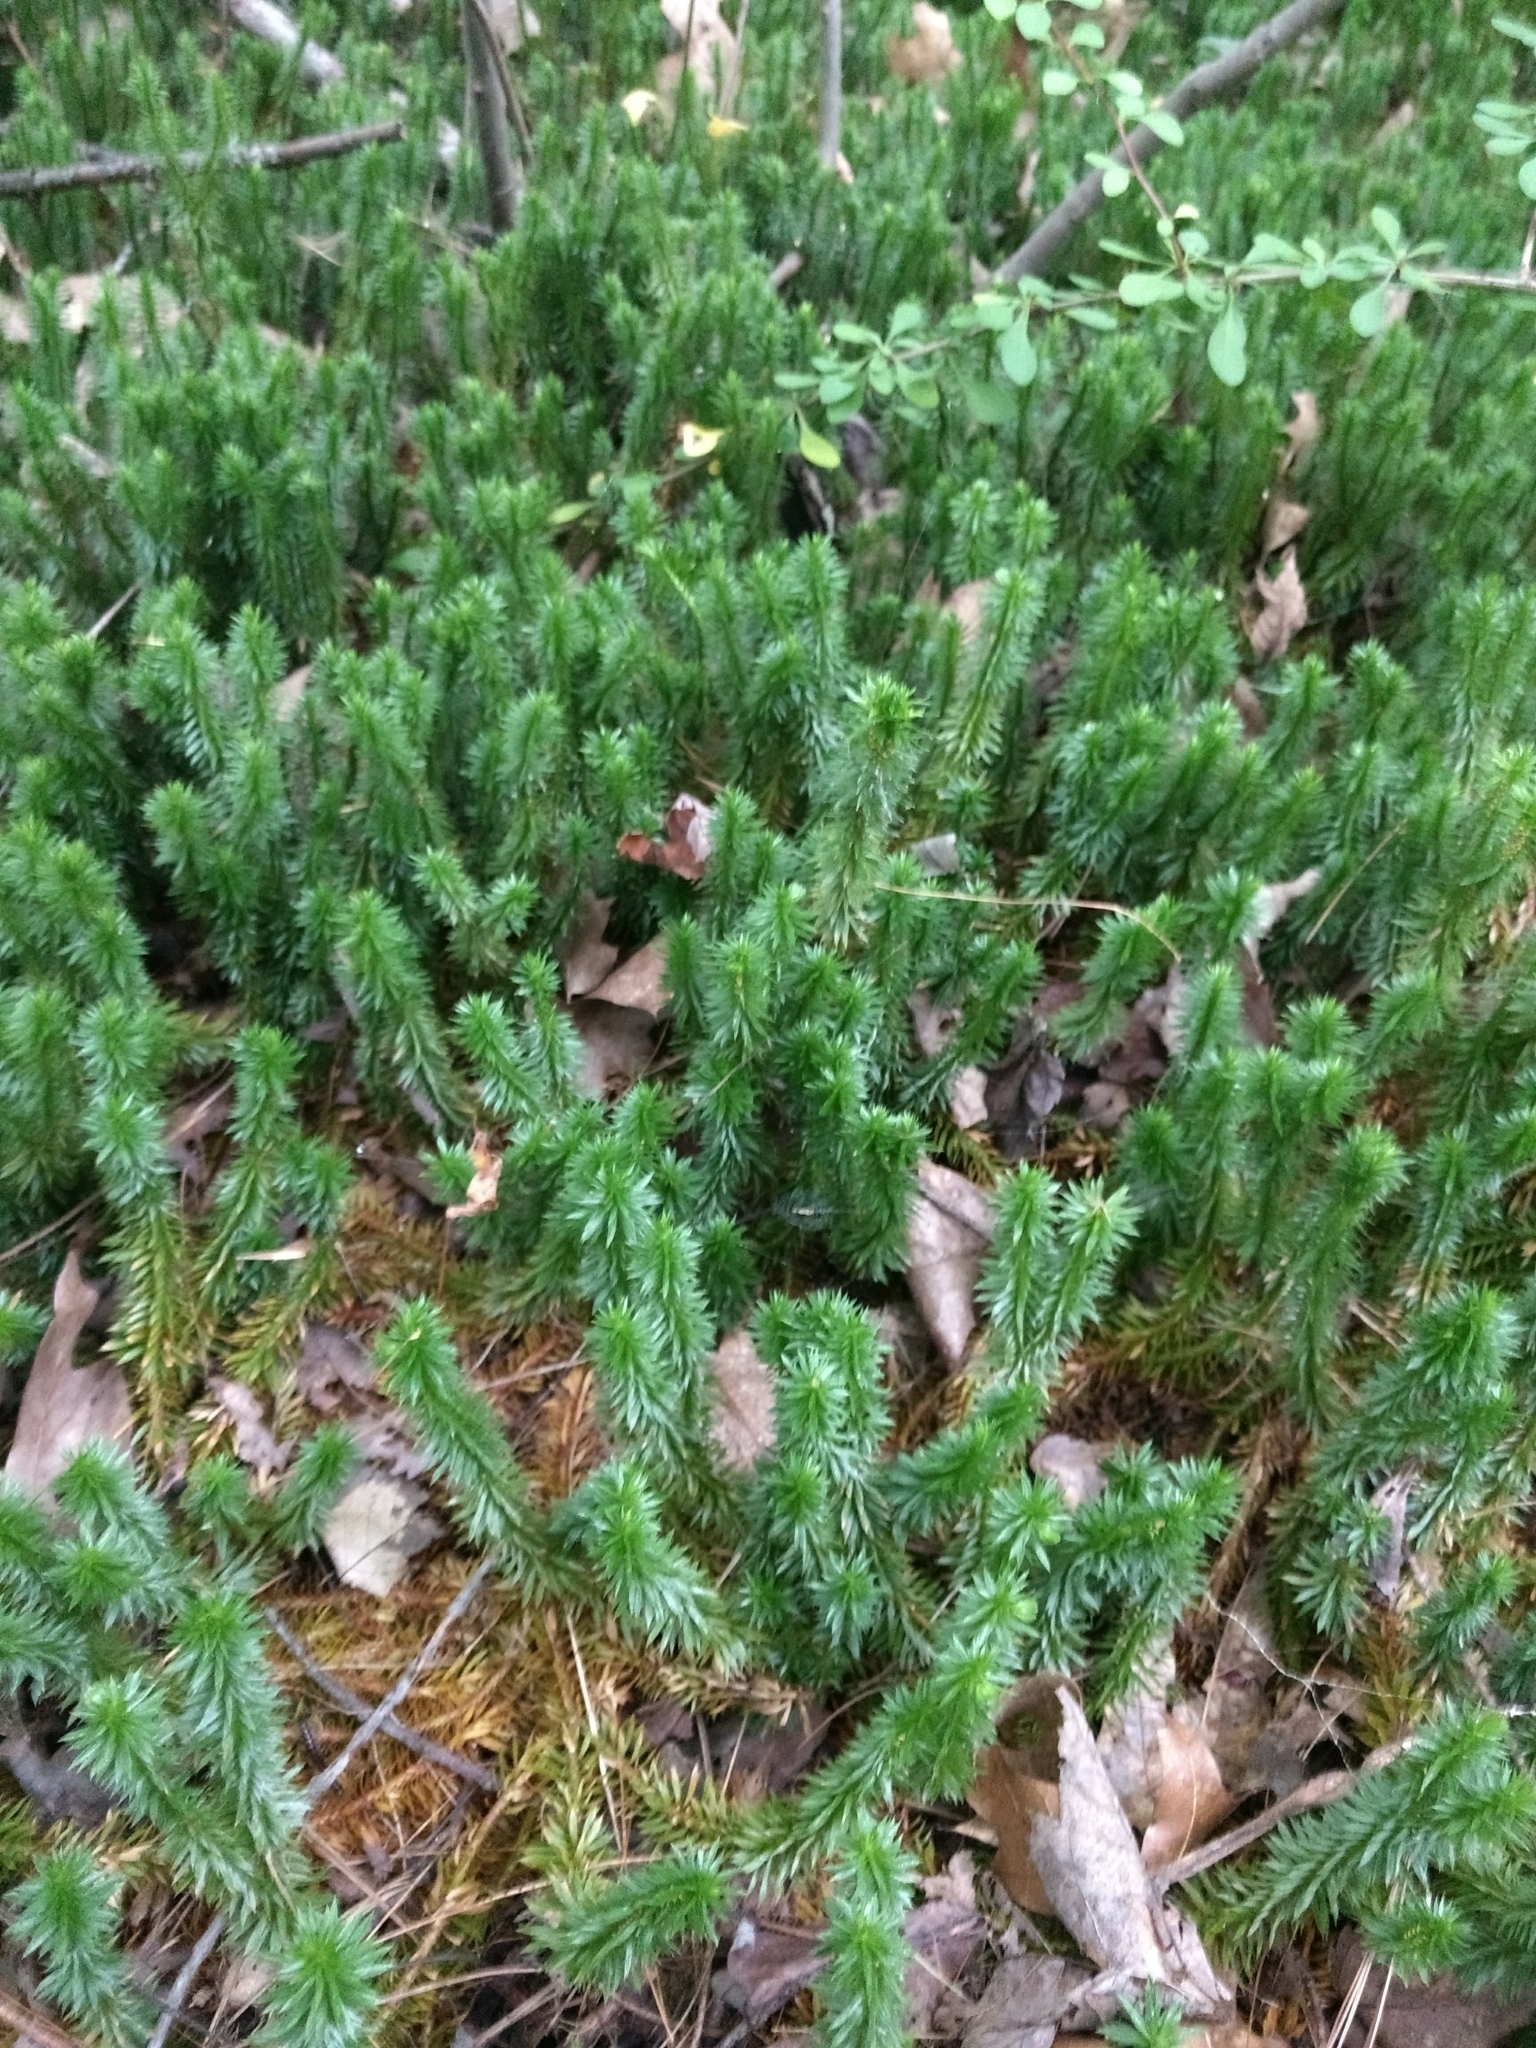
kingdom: Plantae
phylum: Tracheophyta
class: Lycopodiopsida
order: Lycopodiales
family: Lycopodiaceae
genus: Huperzia
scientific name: Huperzia lucidula
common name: Shining clubmoss
